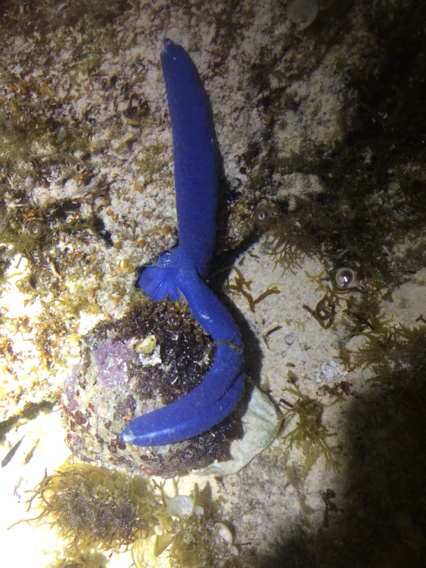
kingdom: Animalia
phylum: Echinodermata
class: Asteroidea
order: Valvatida
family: Ophidiasteridae
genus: Linckia
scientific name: Linckia laevigata
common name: Azure sea star
